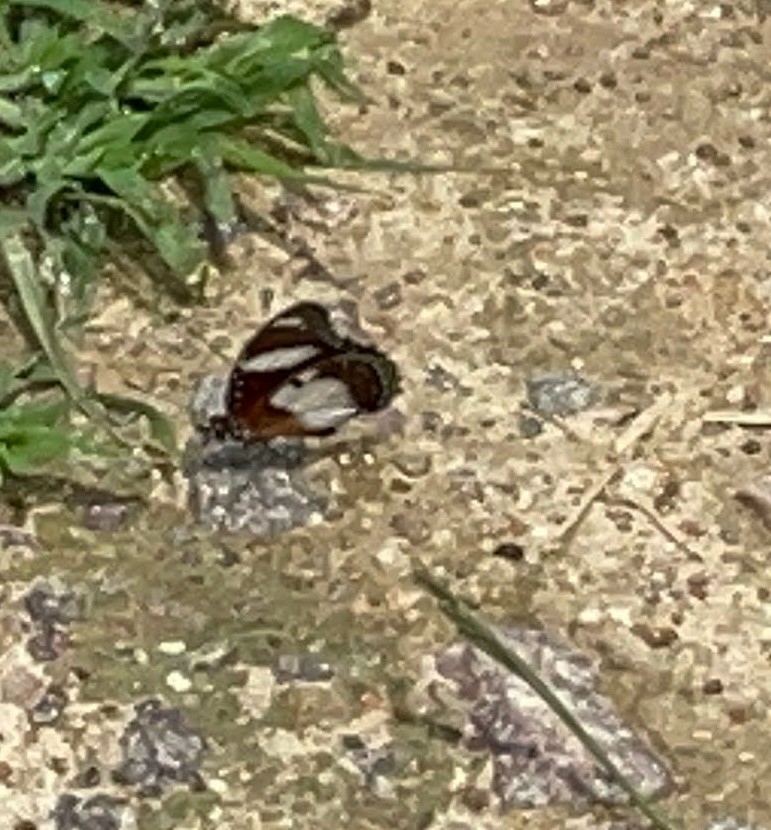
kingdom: Animalia
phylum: Arthropoda
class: Insecta
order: Lepidoptera
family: Nymphalidae
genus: Hypolimnas
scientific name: Hypolimnas misippus
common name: False plain tiger
